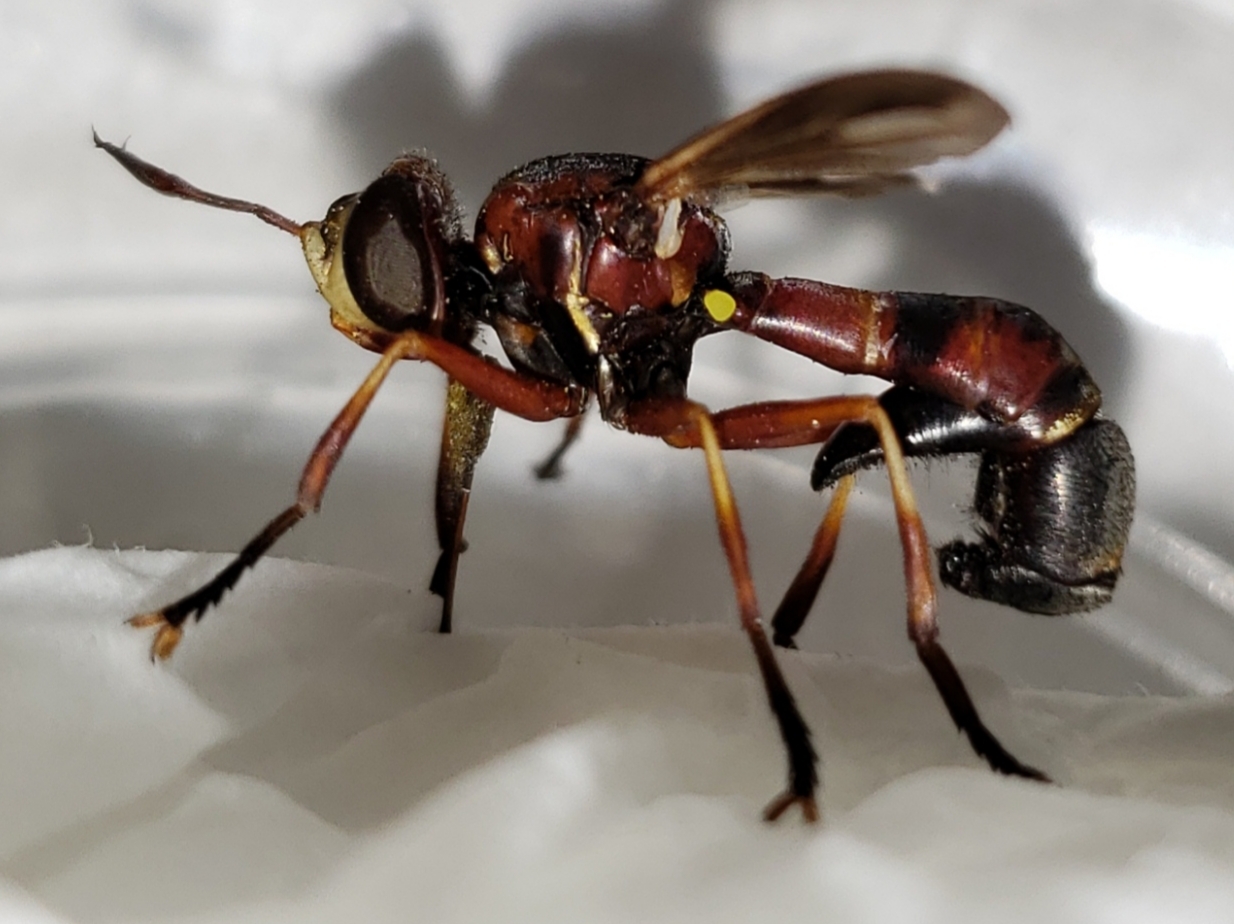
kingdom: Animalia
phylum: Arthropoda
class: Insecta
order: Diptera
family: Conopidae
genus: Physoconops
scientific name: Physoconops excisus
